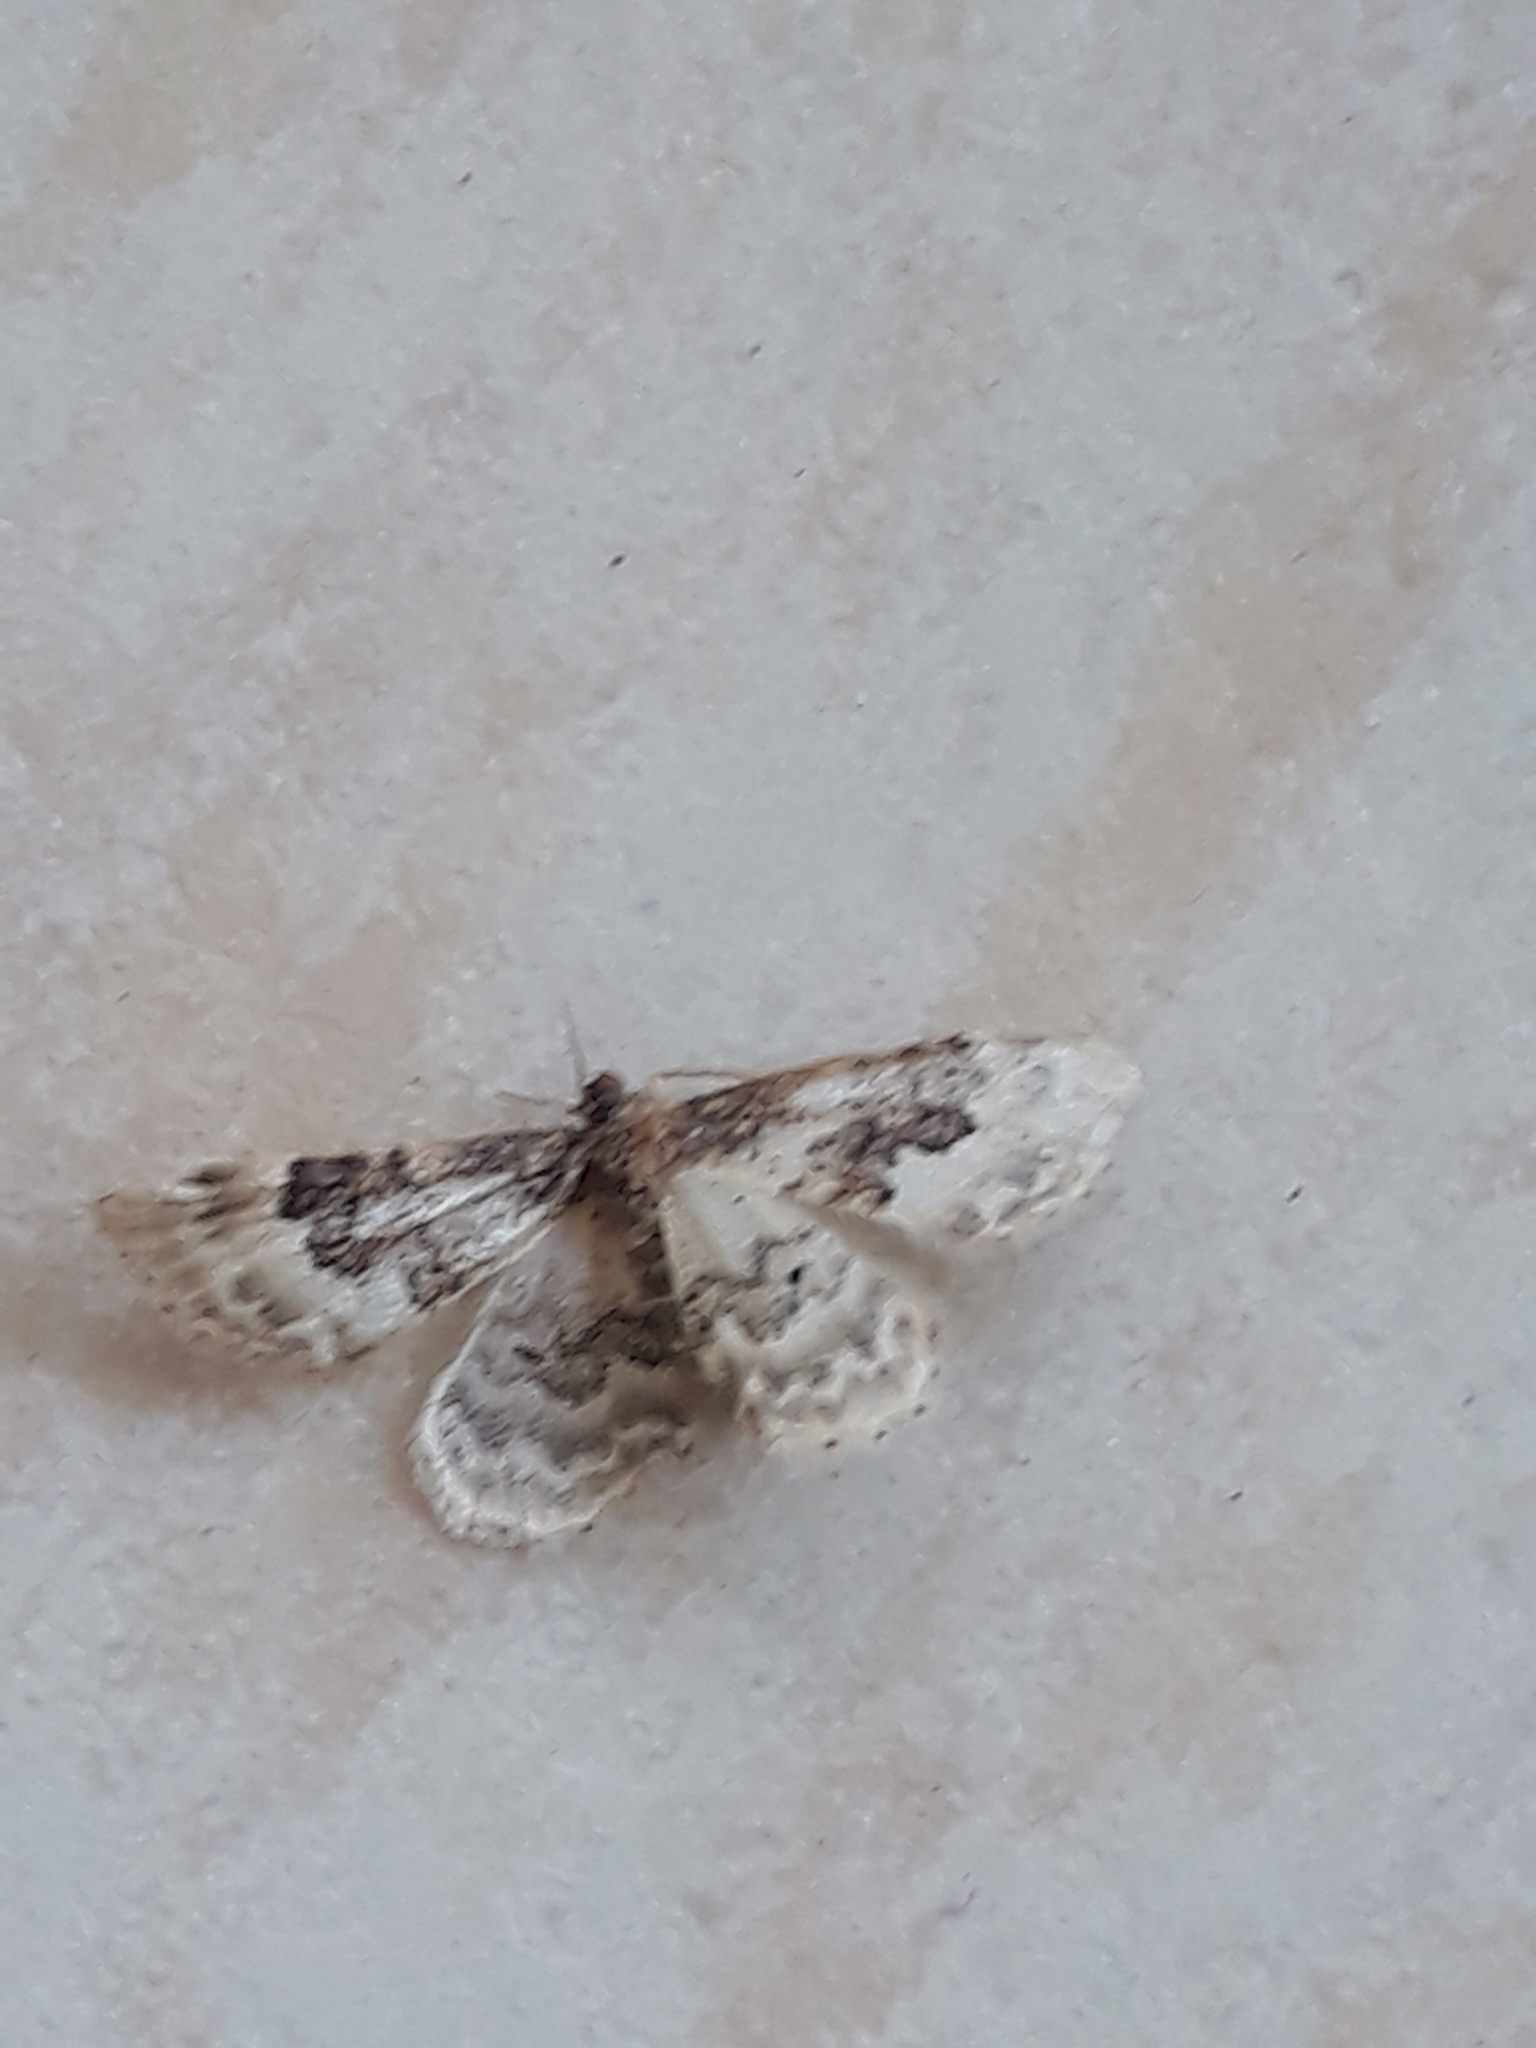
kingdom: Animalia
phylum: Arthropoda
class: Insecta
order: Lepidoptera
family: Geometridae
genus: Idaea
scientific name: Idaea rusticata
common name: Least carpet
